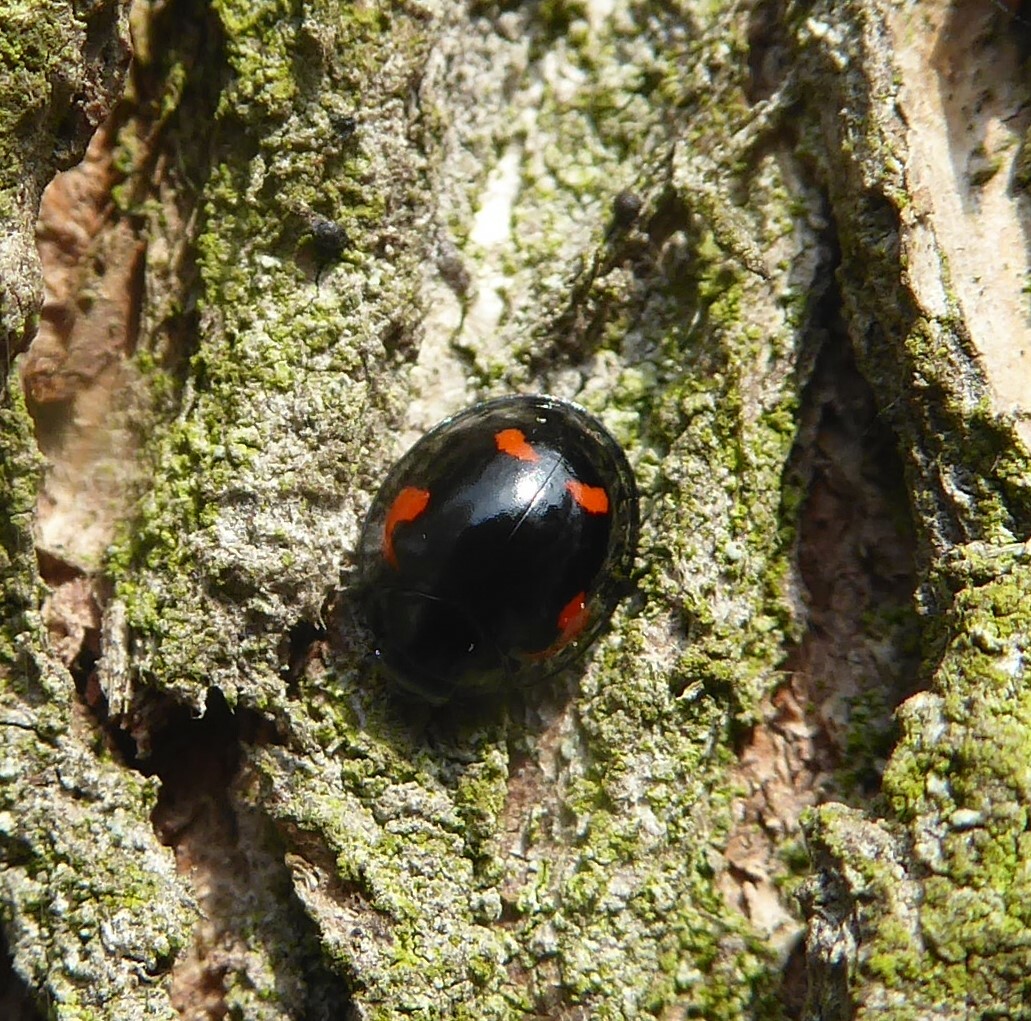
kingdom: Animalia
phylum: Arthropoda
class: Insecta
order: Coleoptera
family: Coccinellidae
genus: Brumus
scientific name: Brumus quadripustulatus
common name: Ladybird beetle
